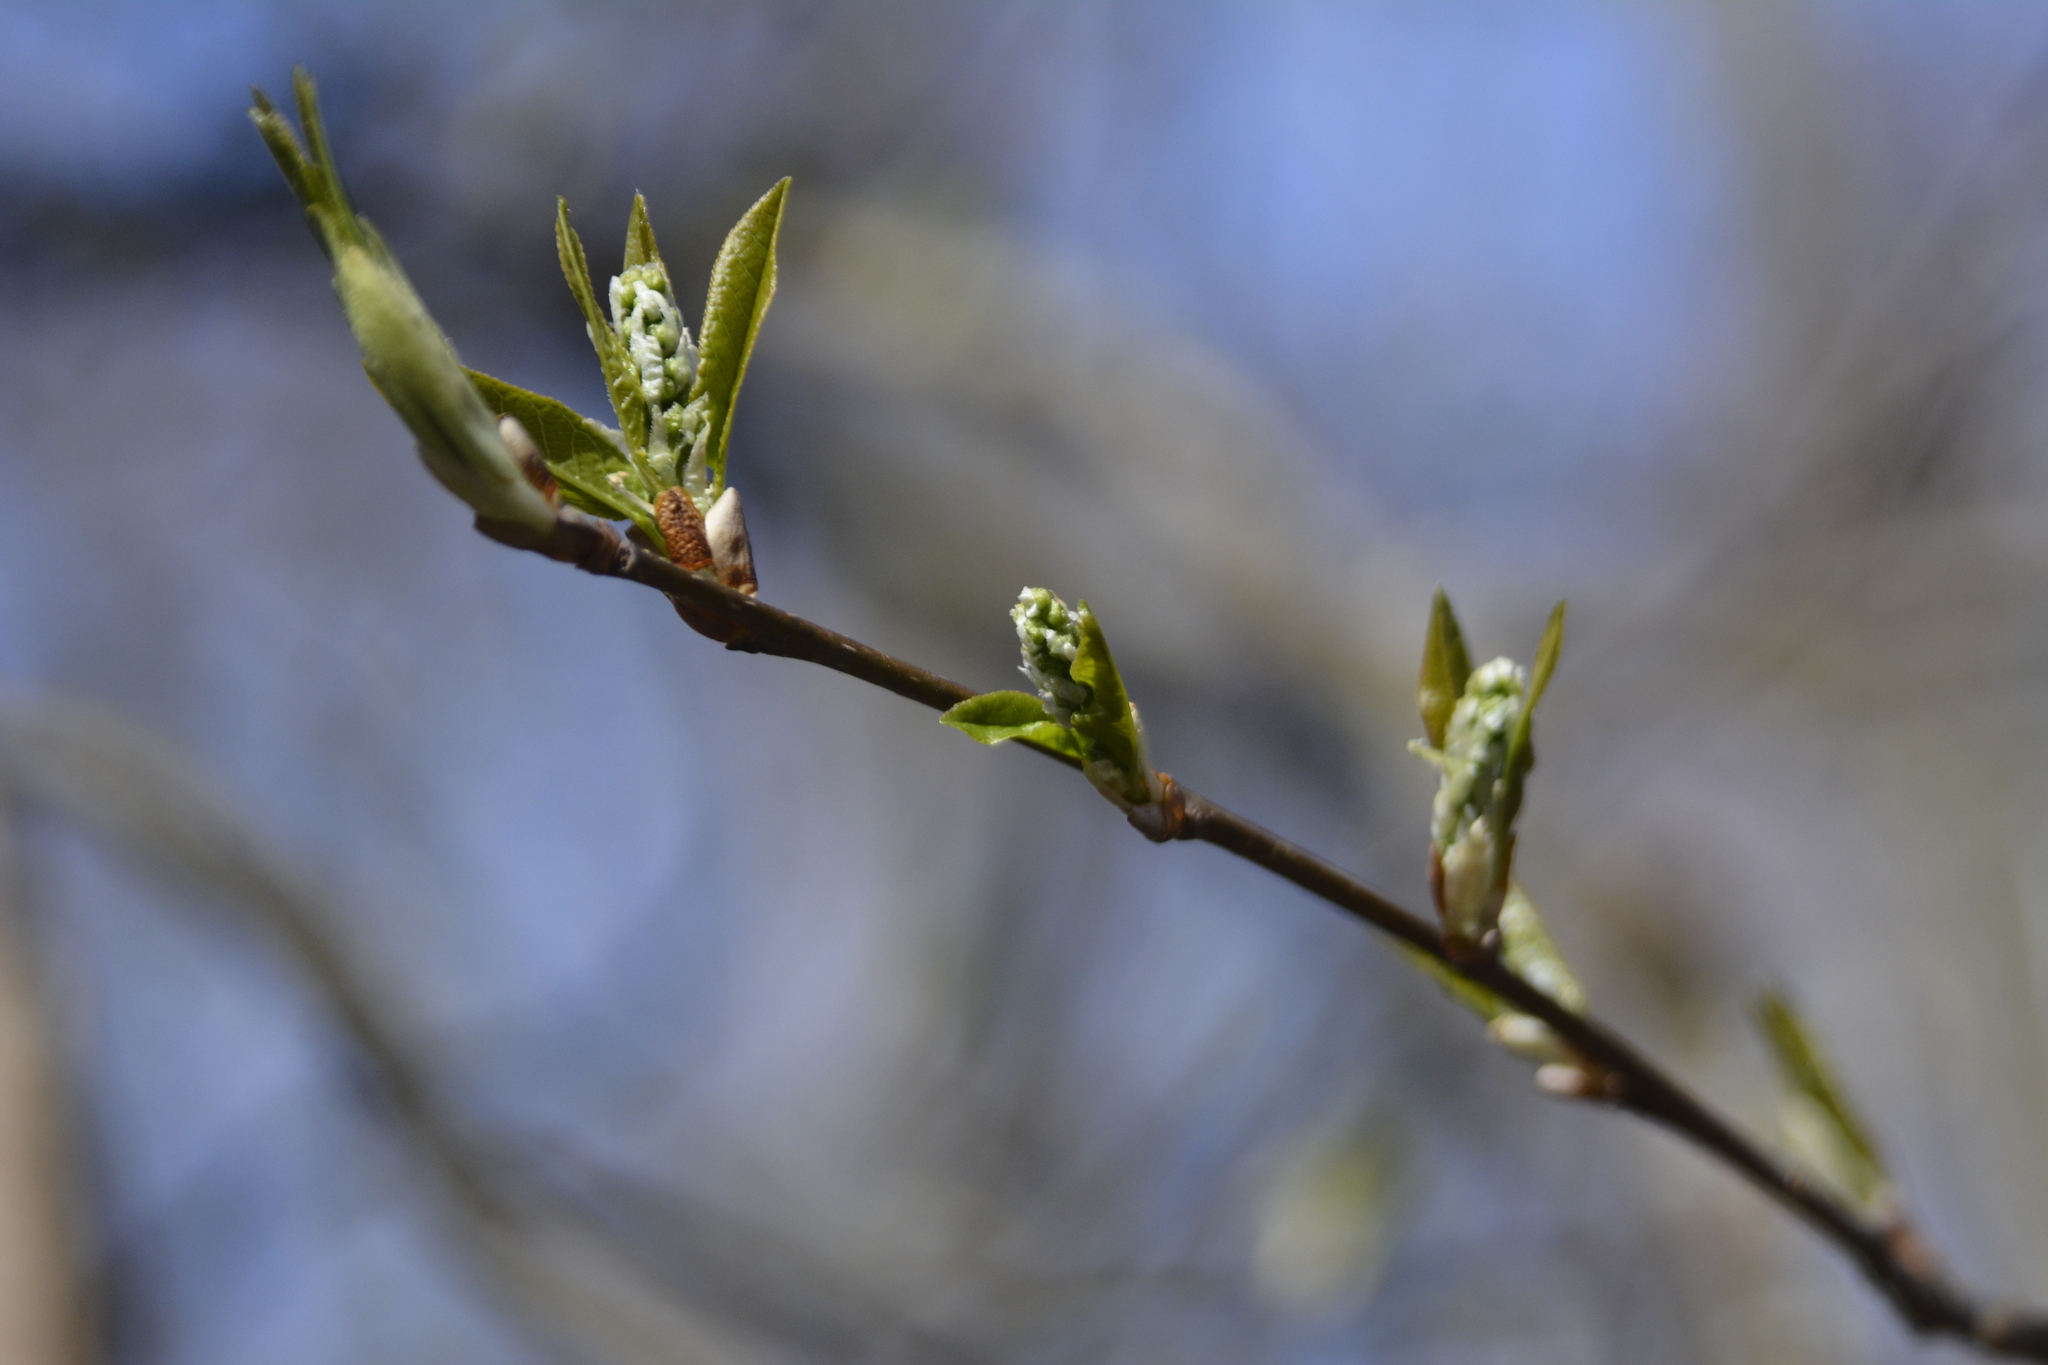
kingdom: Plantae
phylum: Tracheophyta
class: Magnoliopsida
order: Rosales
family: Rosaceae
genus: Prunus
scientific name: Prunus padus
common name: Bird cherry
